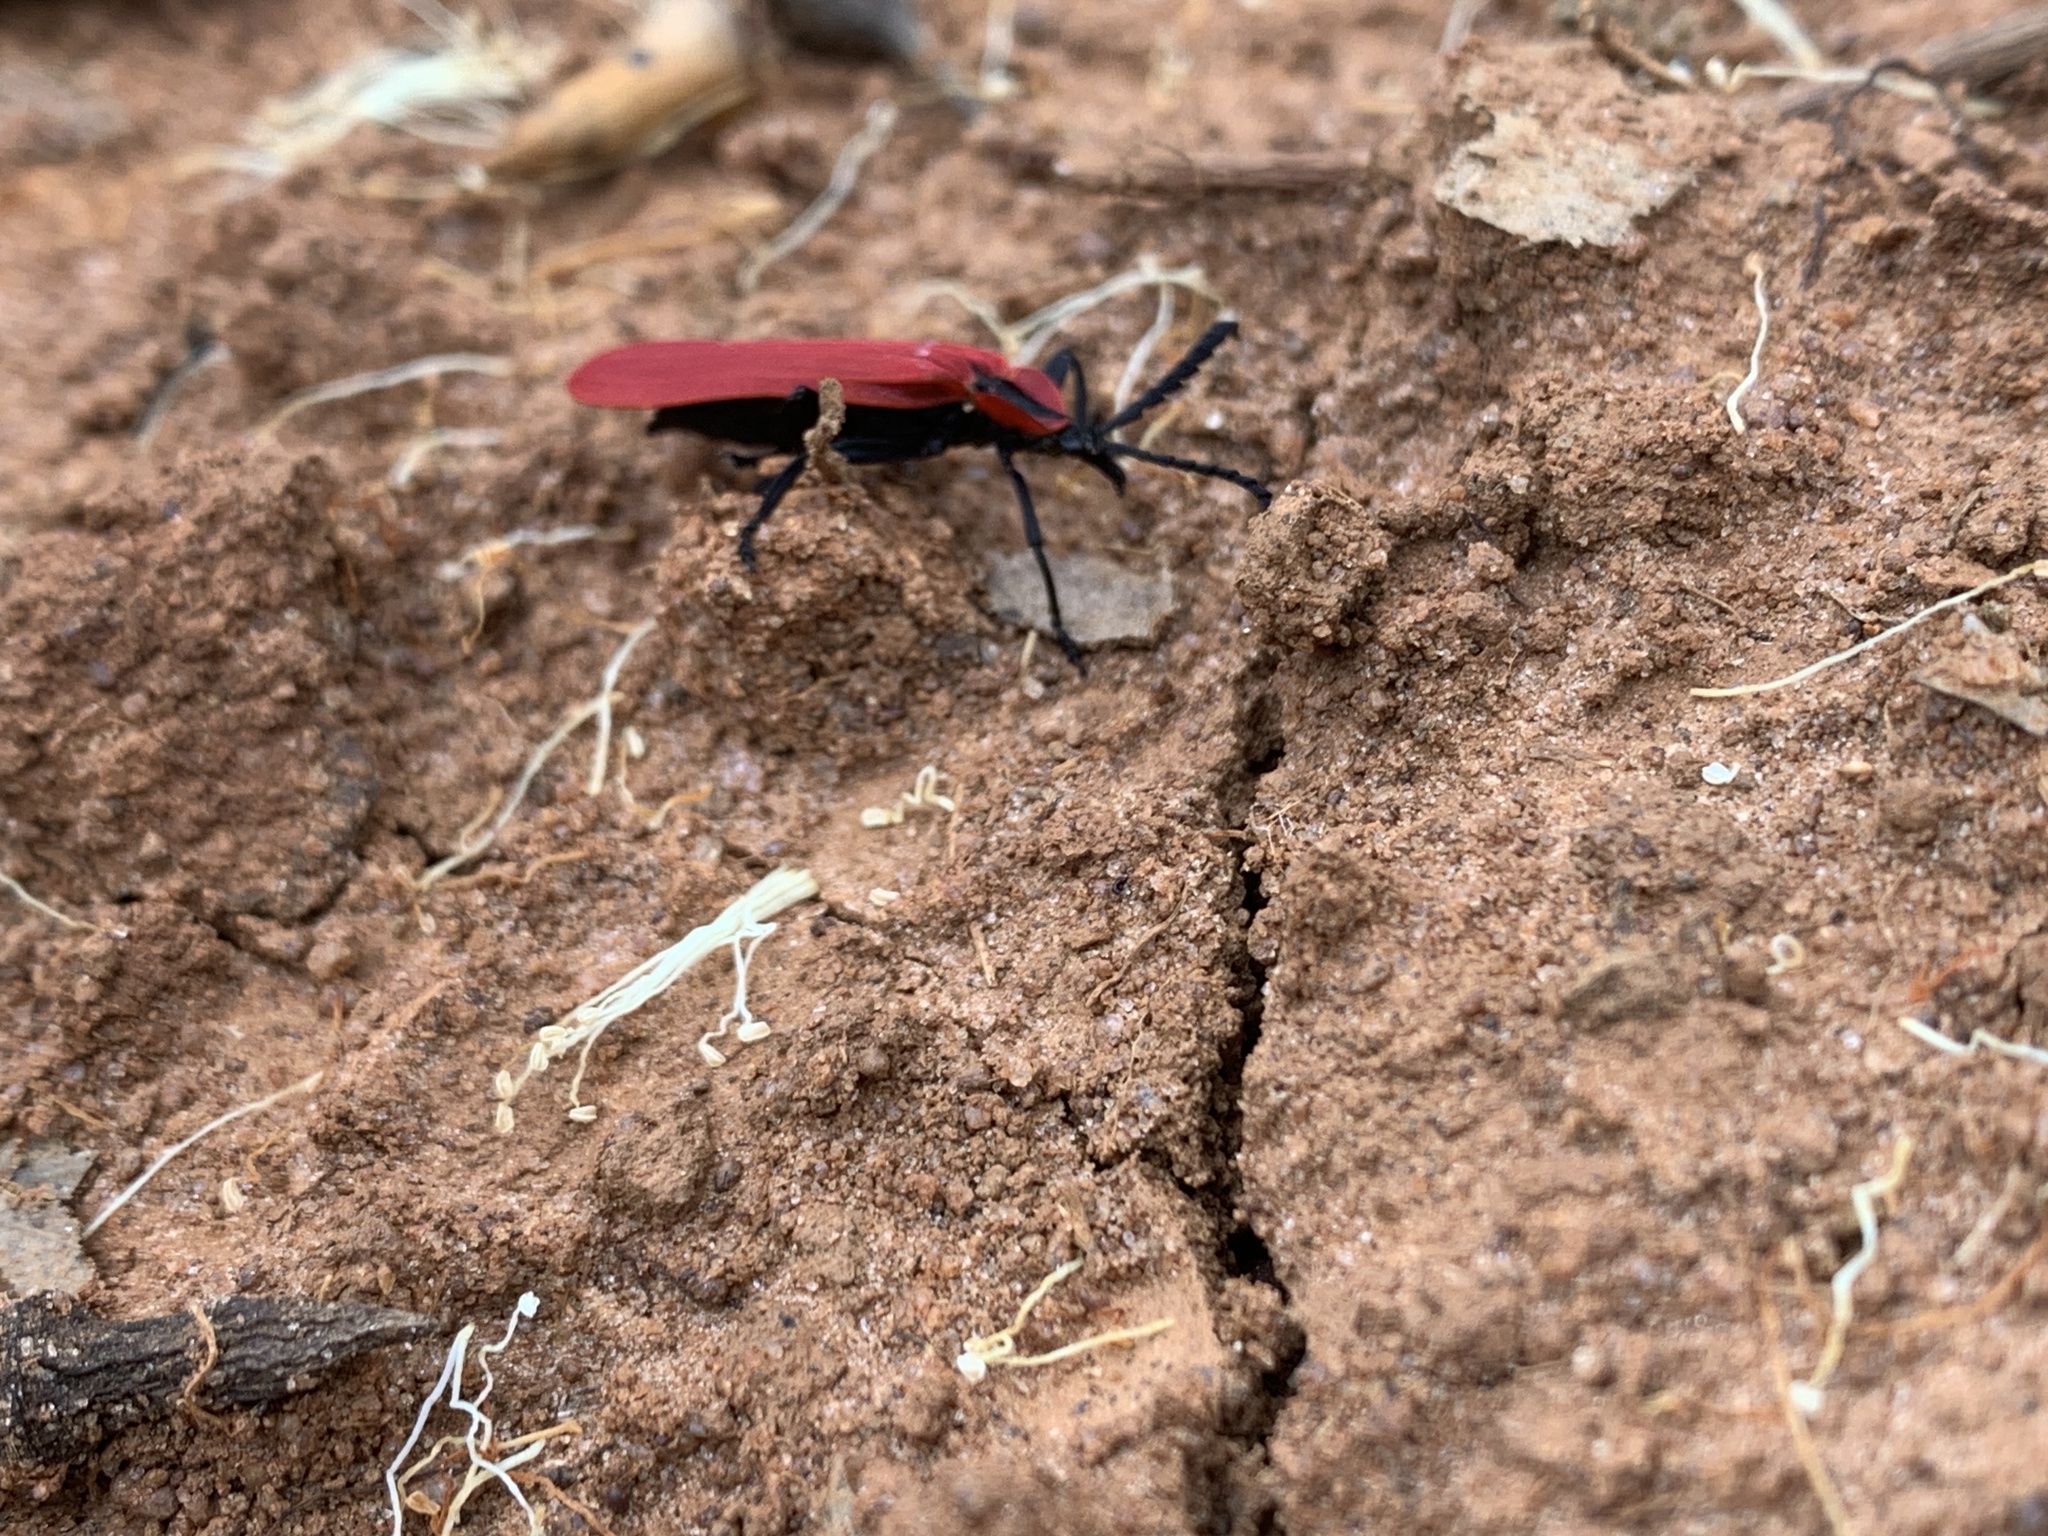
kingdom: Animalia
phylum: Arthropoda
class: Insecta
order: Coleoptera
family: Lycidae
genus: Lycostomus
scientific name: Lycostomus similis
